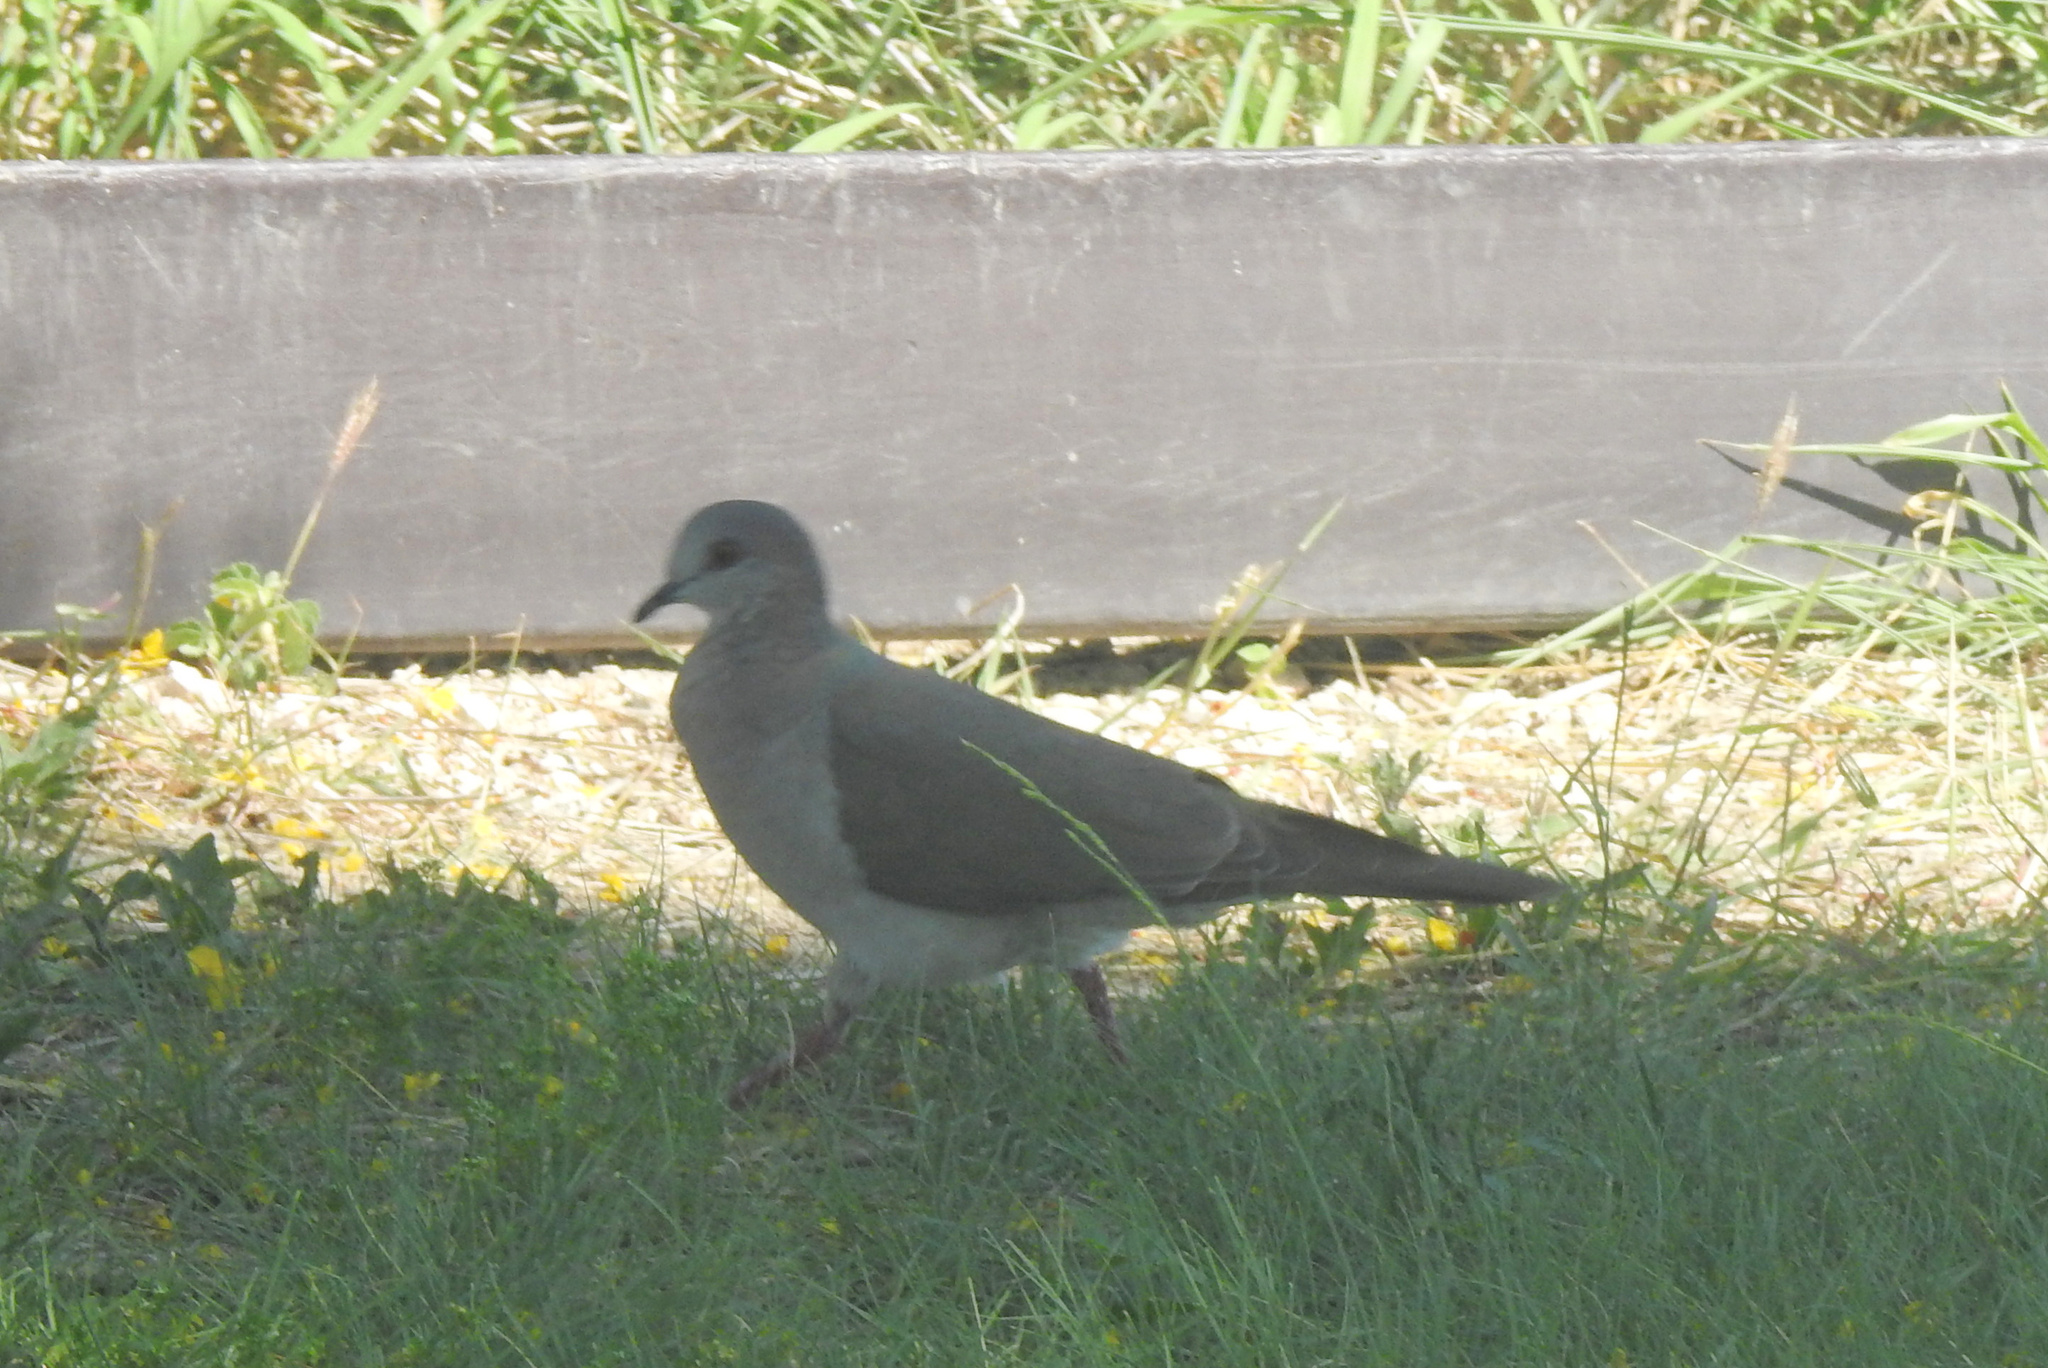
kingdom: Animalia
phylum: Chordata
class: Aves
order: Columbiformes
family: Columbidae
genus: Leptotila
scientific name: Leptotila verreauxi
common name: White-tipped dove
